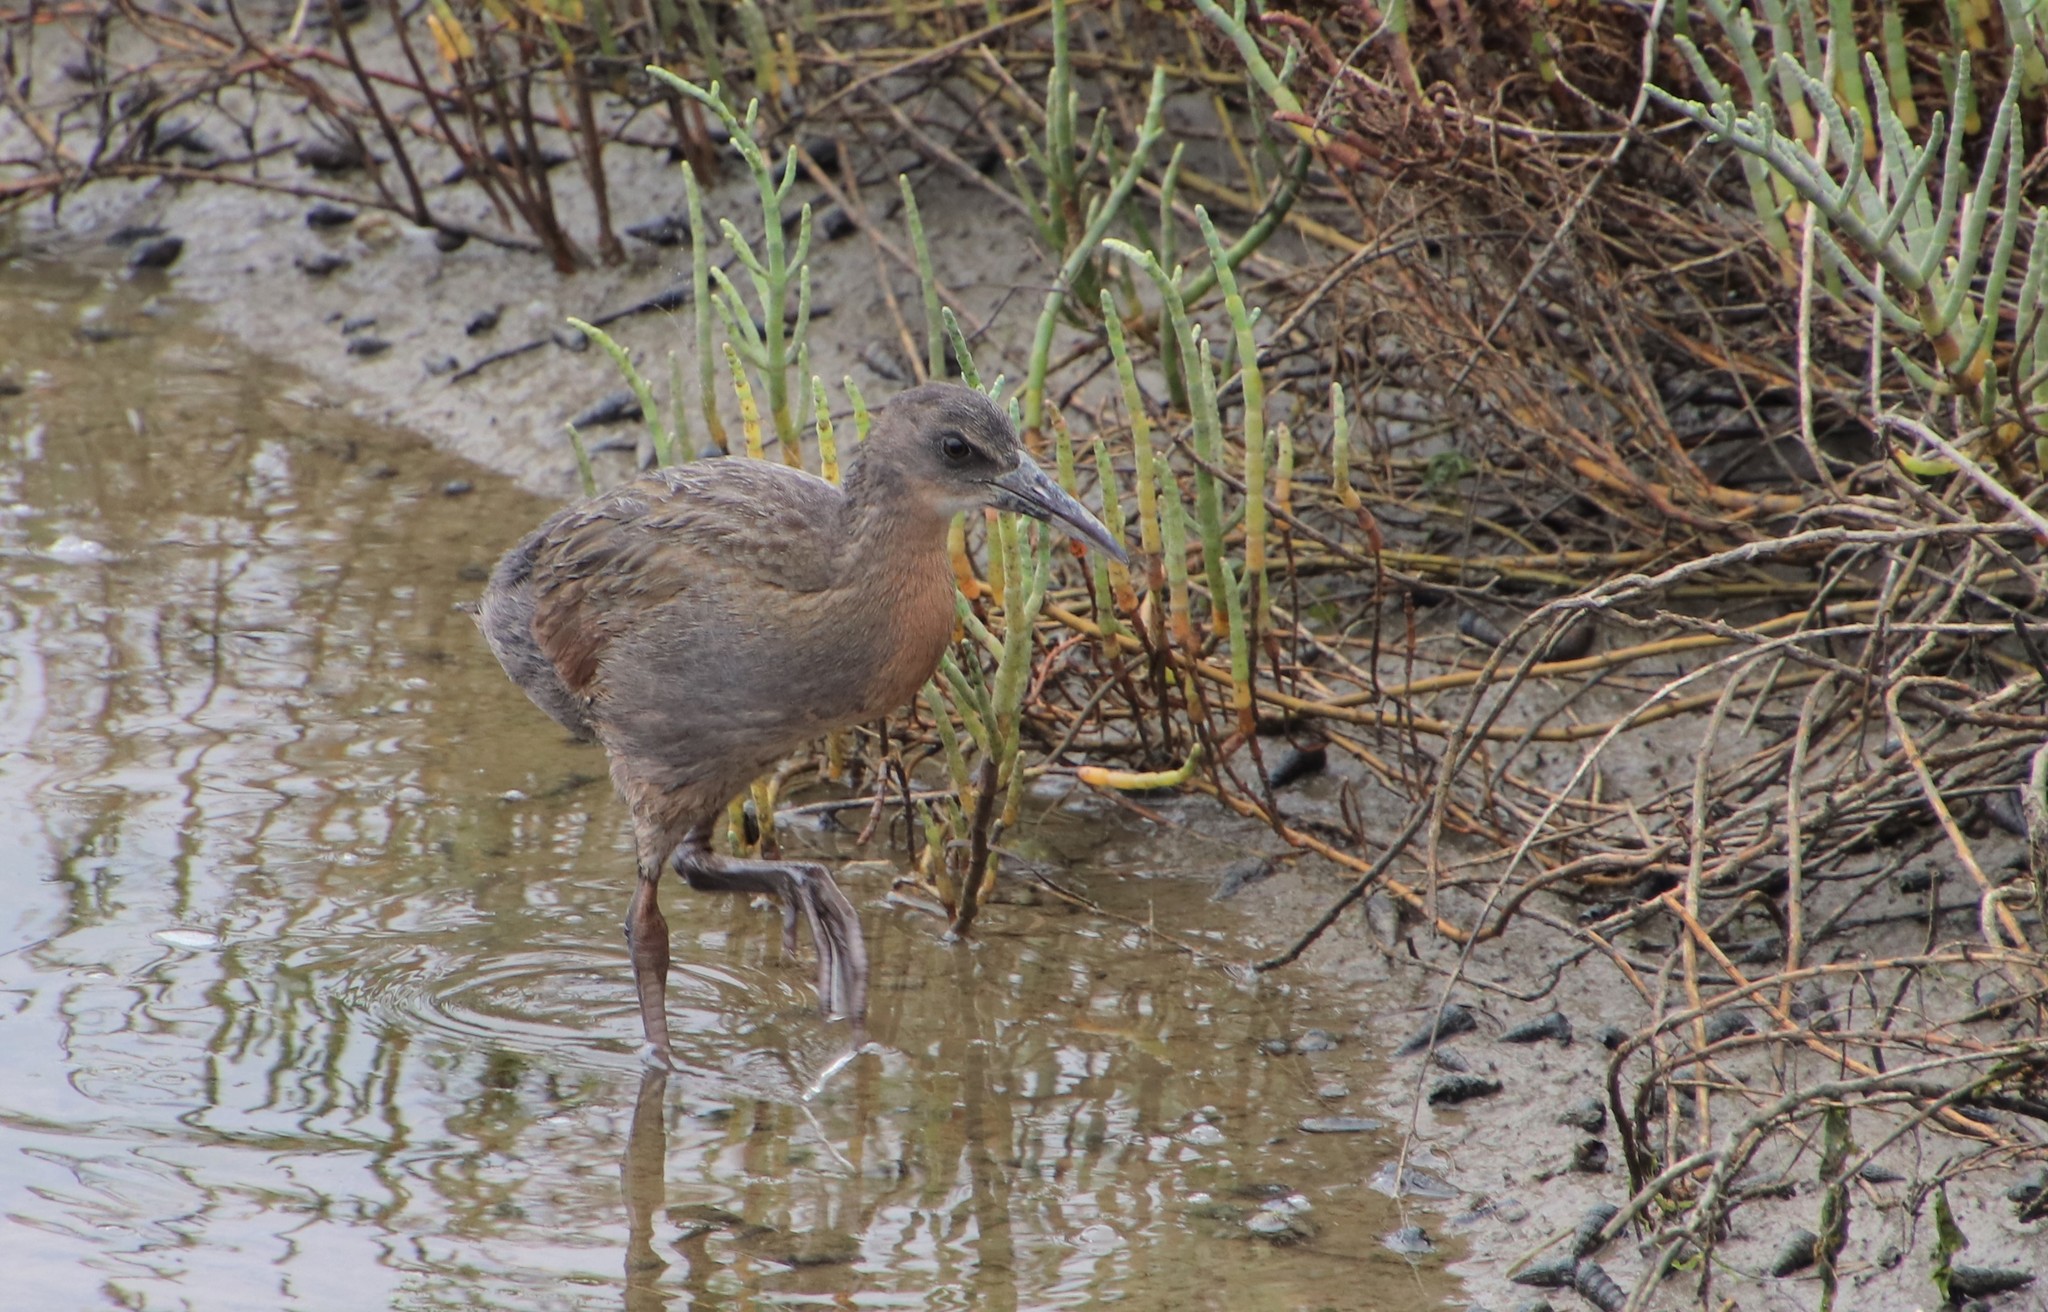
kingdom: Animalia
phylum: Chordata
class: Aves
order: Gruiformes
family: Rallidae
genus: Rallus
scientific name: Rallus obsoletus
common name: Ridgway's rail
